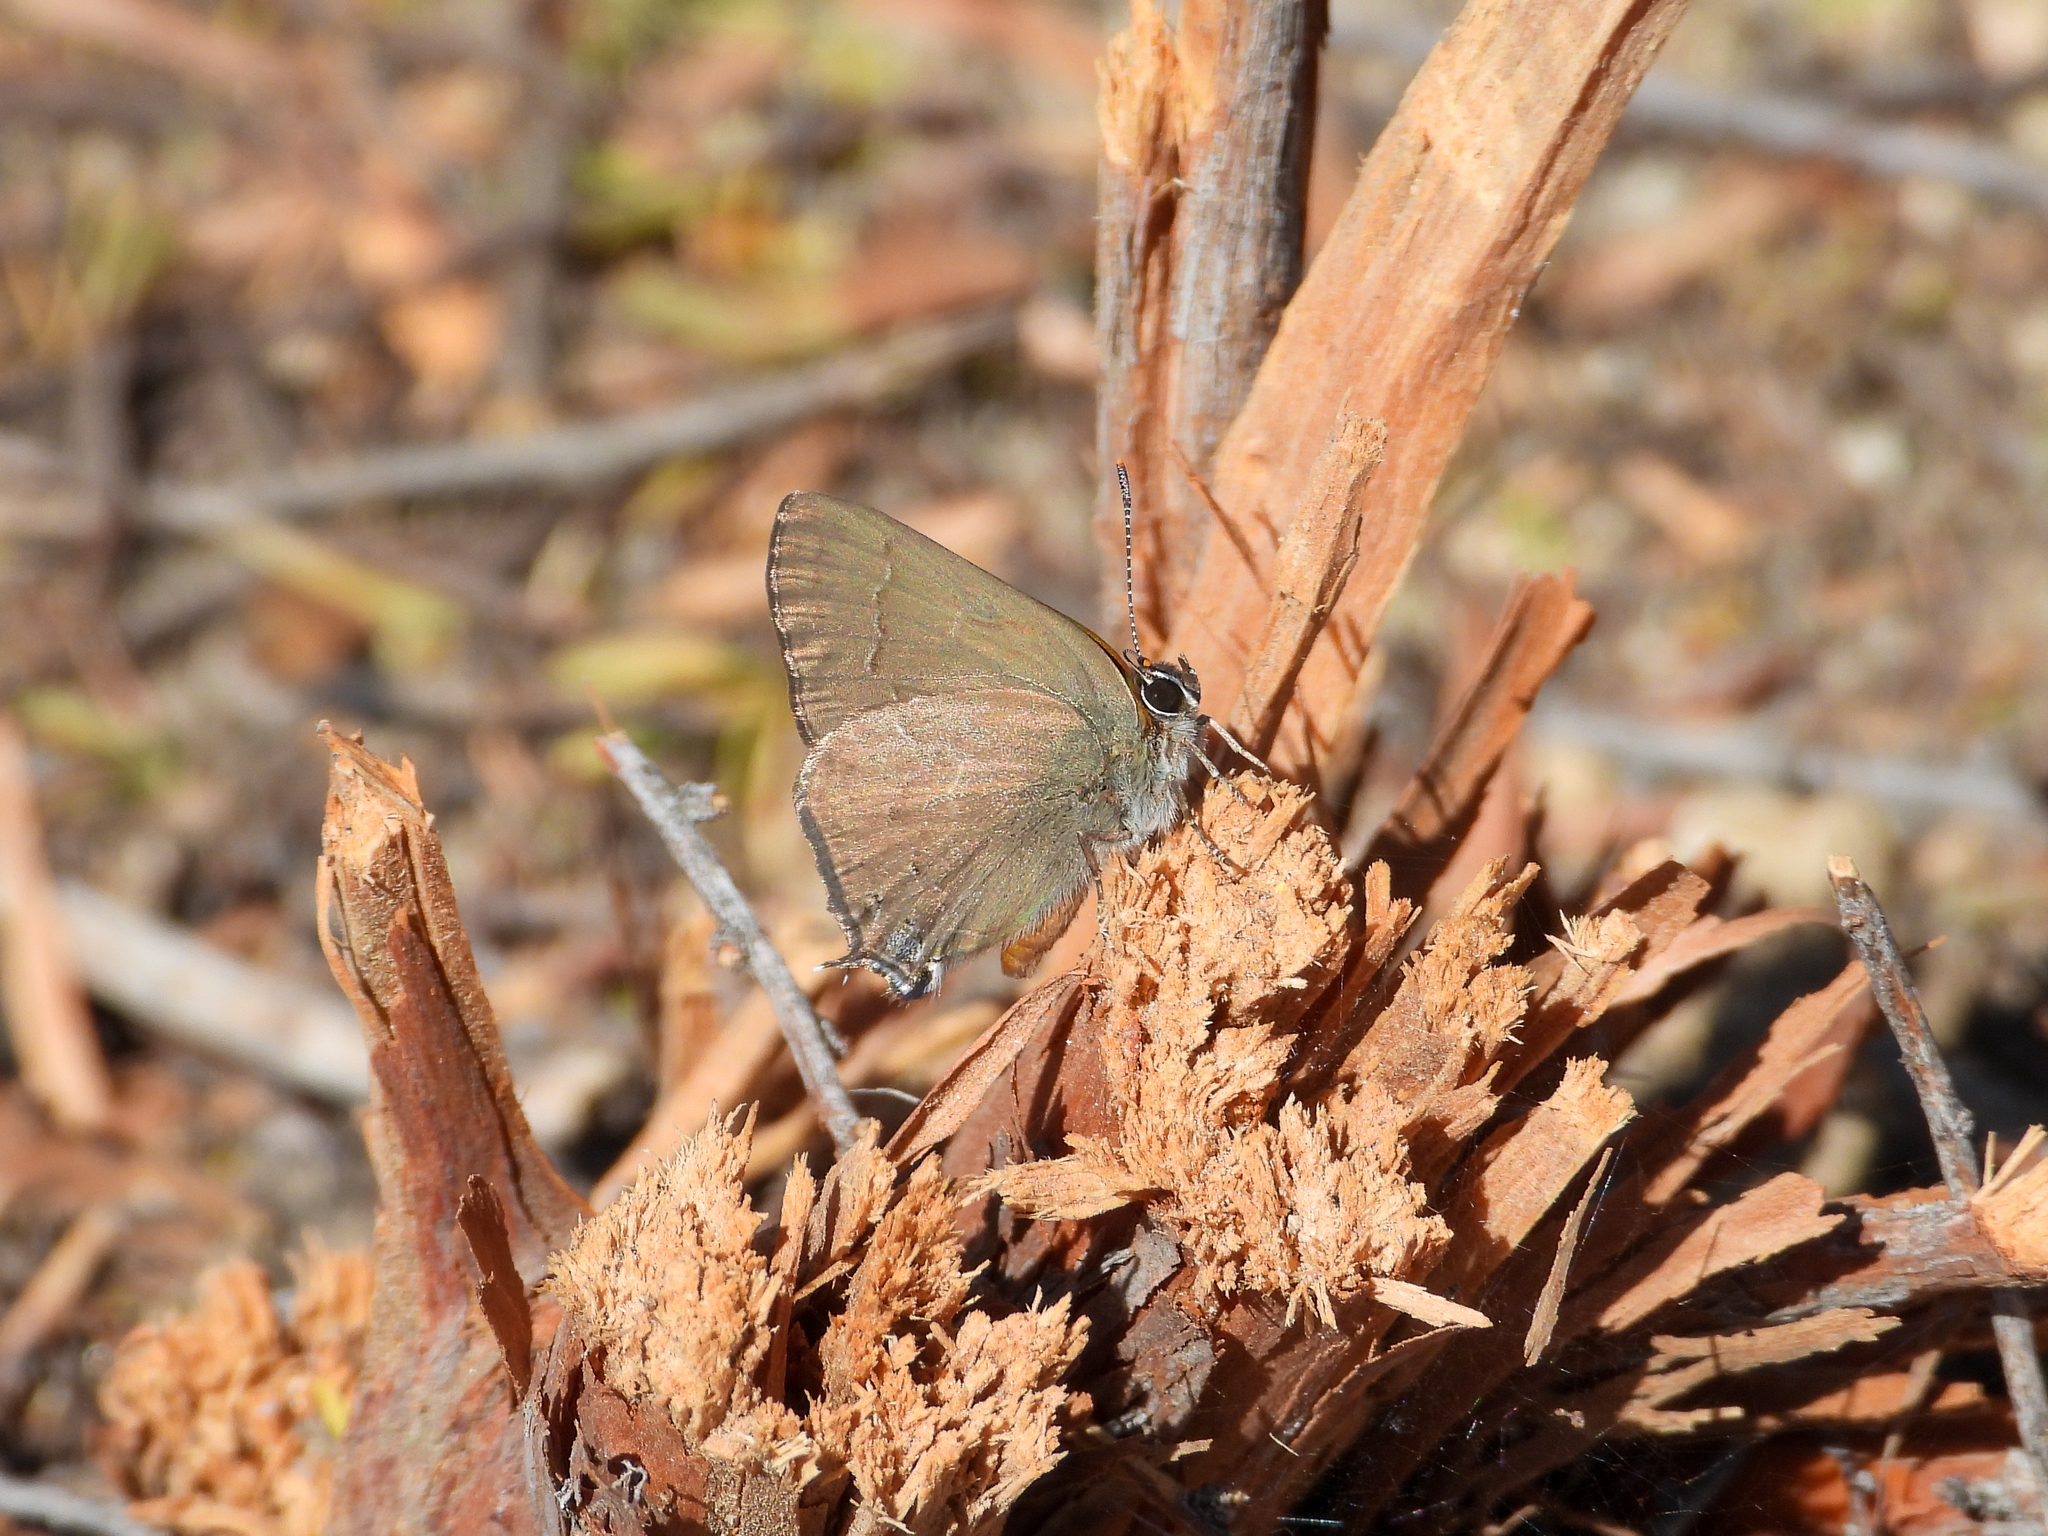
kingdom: Animalia
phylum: Arthropoda
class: Insecta
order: Lepidoptera
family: Lycaenidae
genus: Strymon
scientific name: Strymon saepium
